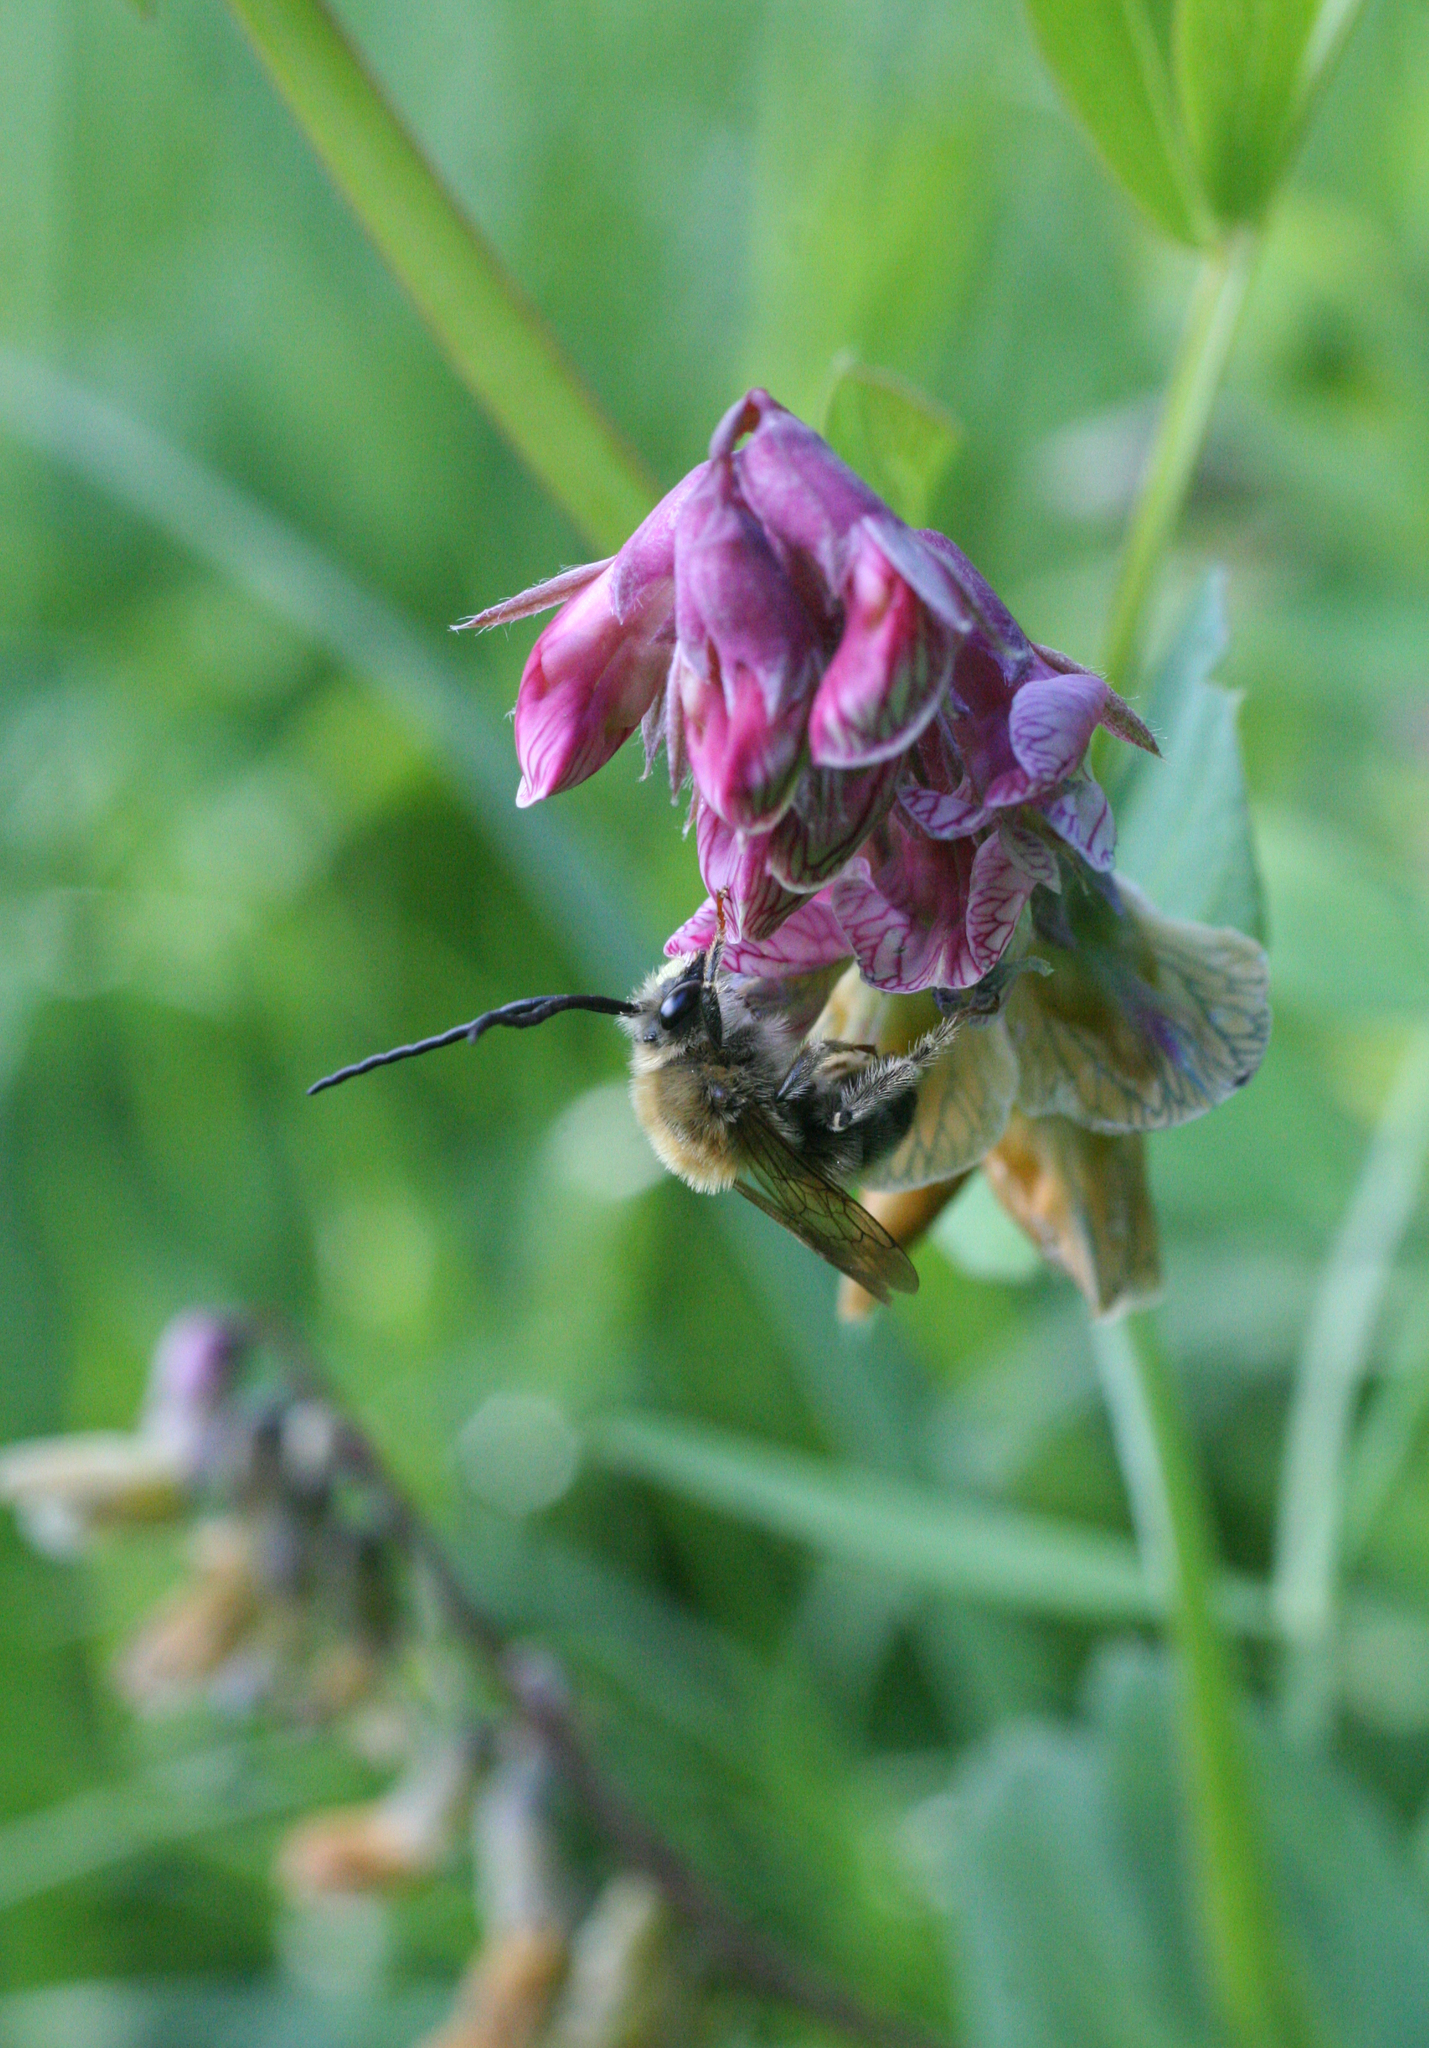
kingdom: Plantae
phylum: Tracheophyta
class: Magnoliopsida
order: Fabales
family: Fabaceae
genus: Lathyrus
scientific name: Lathyrus pisiformis
